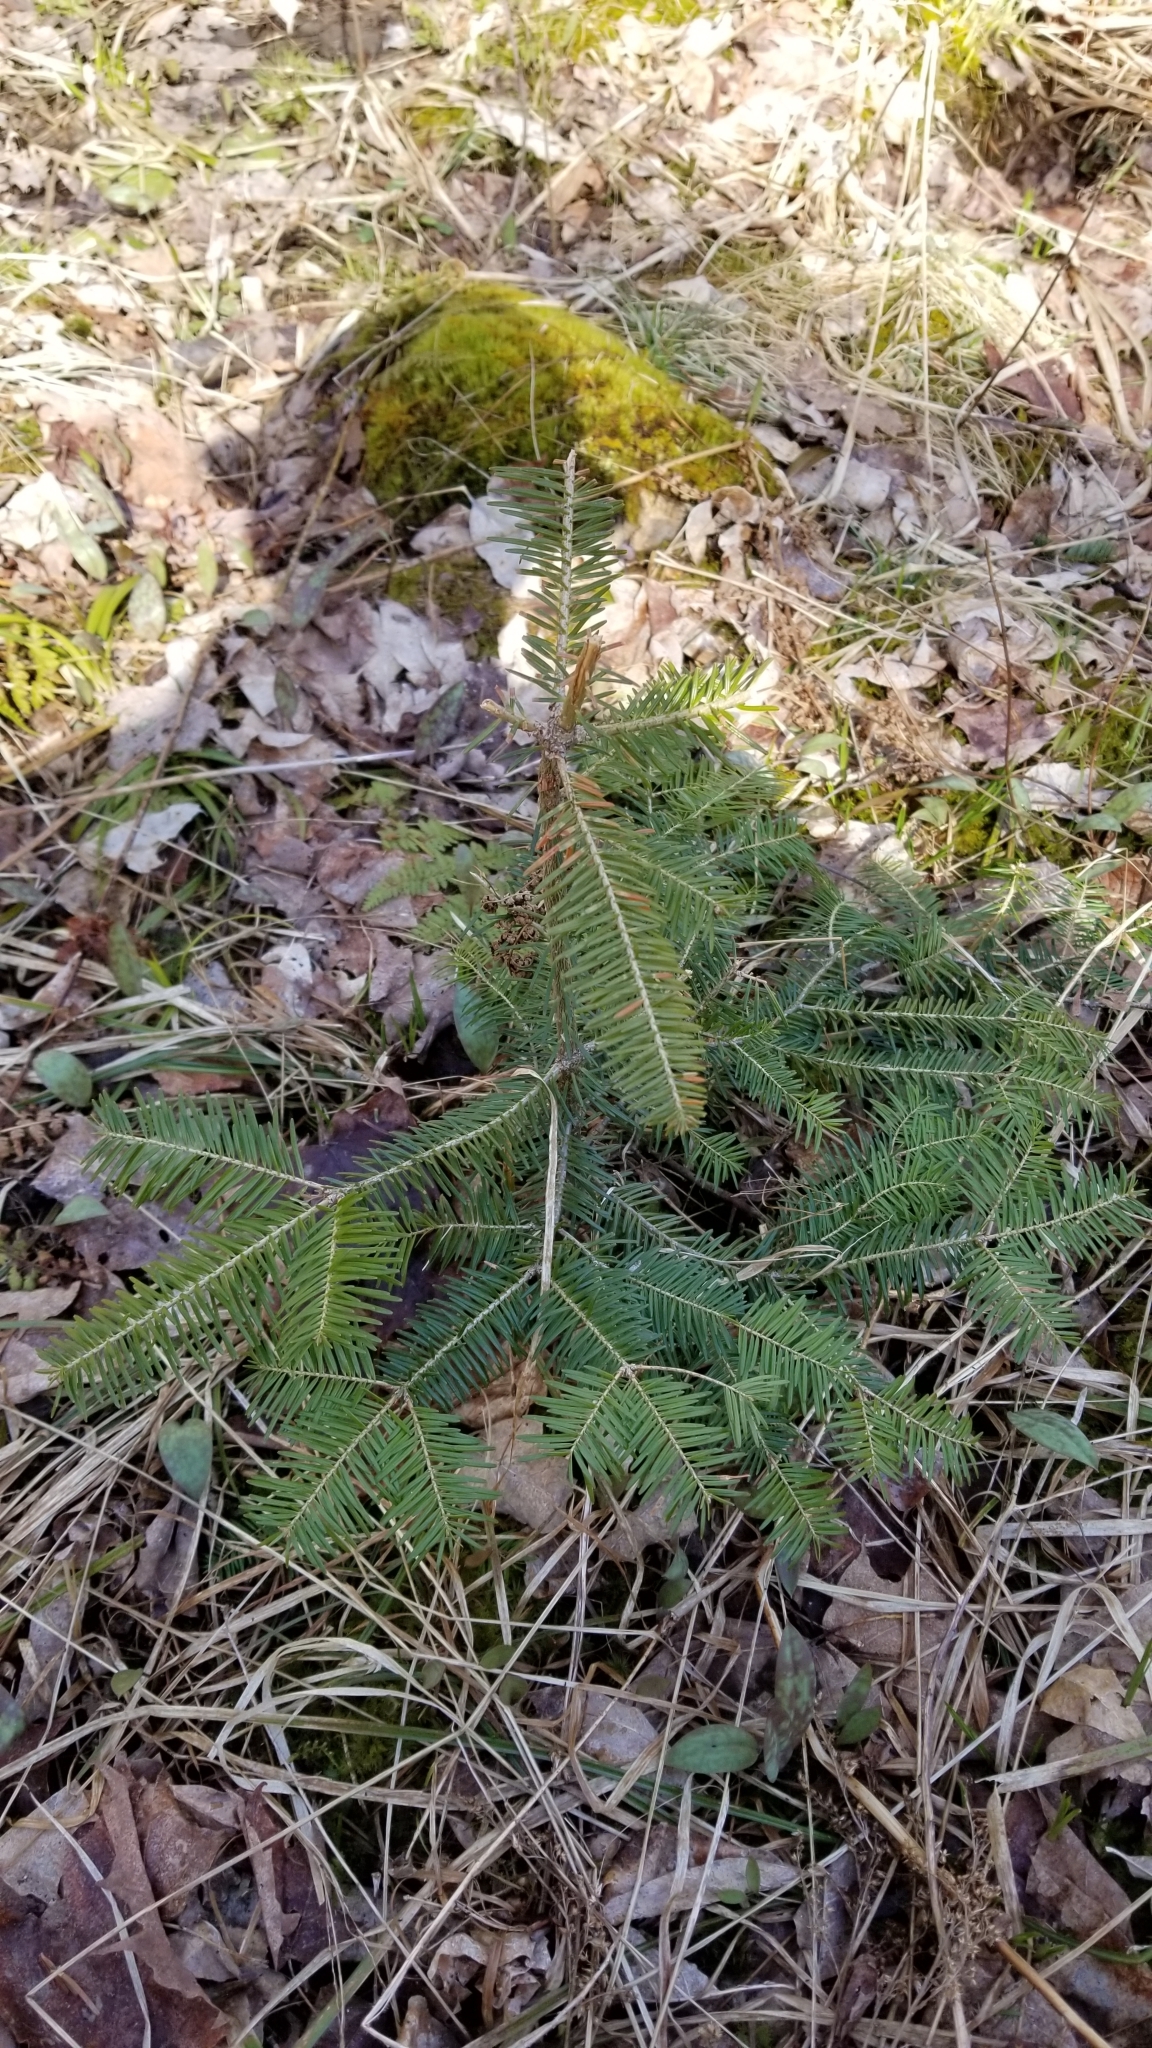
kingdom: Plantae
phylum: Tracheophyta
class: Pinopsida
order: Pinales
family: Pinaceae
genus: Abies
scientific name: Abies balsamea
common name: Balsam fir
